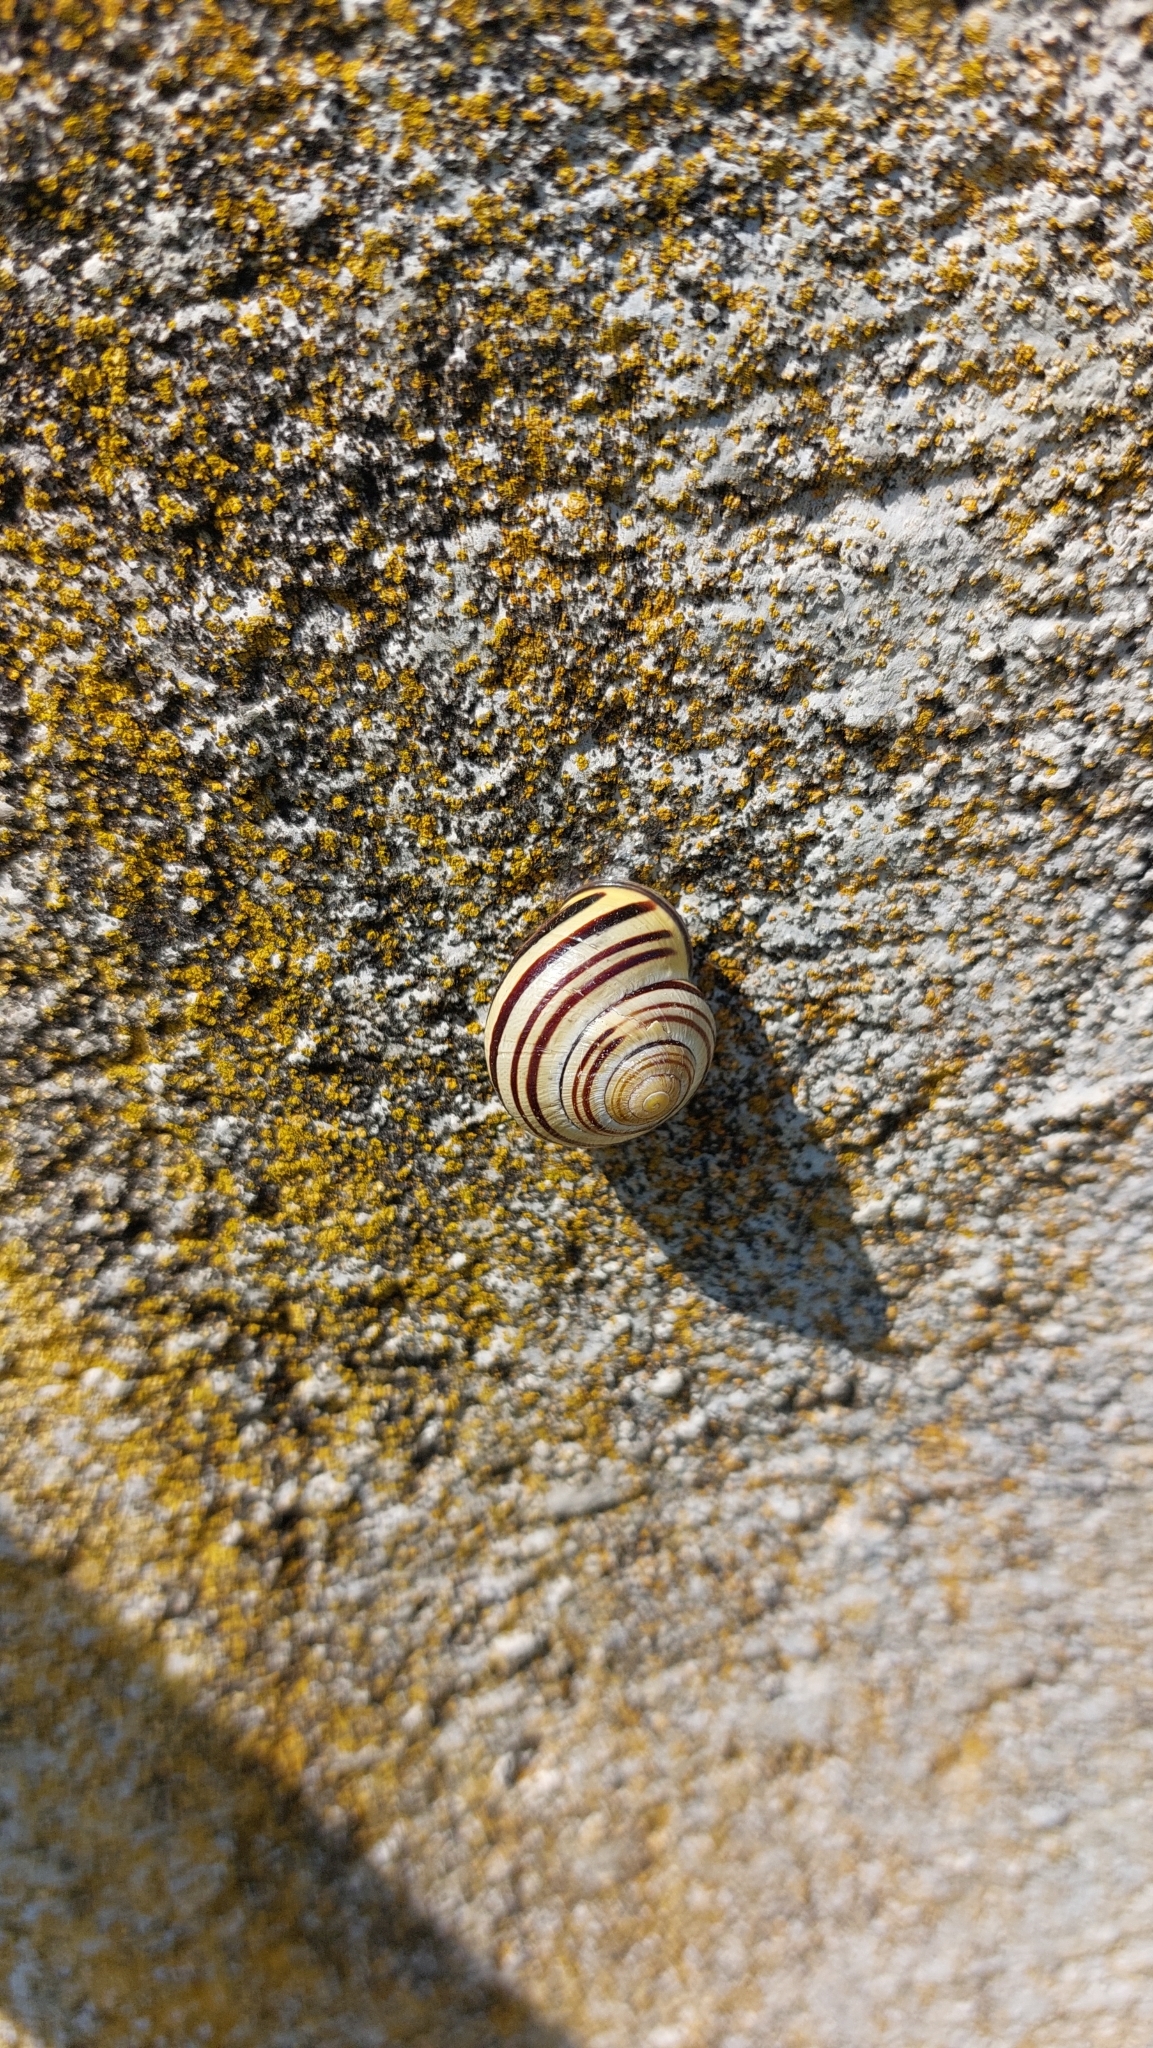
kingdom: Animalia
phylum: Mollusca
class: Gastropoda
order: Stylommatophora
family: Helicidae
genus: Cepaea
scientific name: Cepaea nemoralis
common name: Grovesnail
